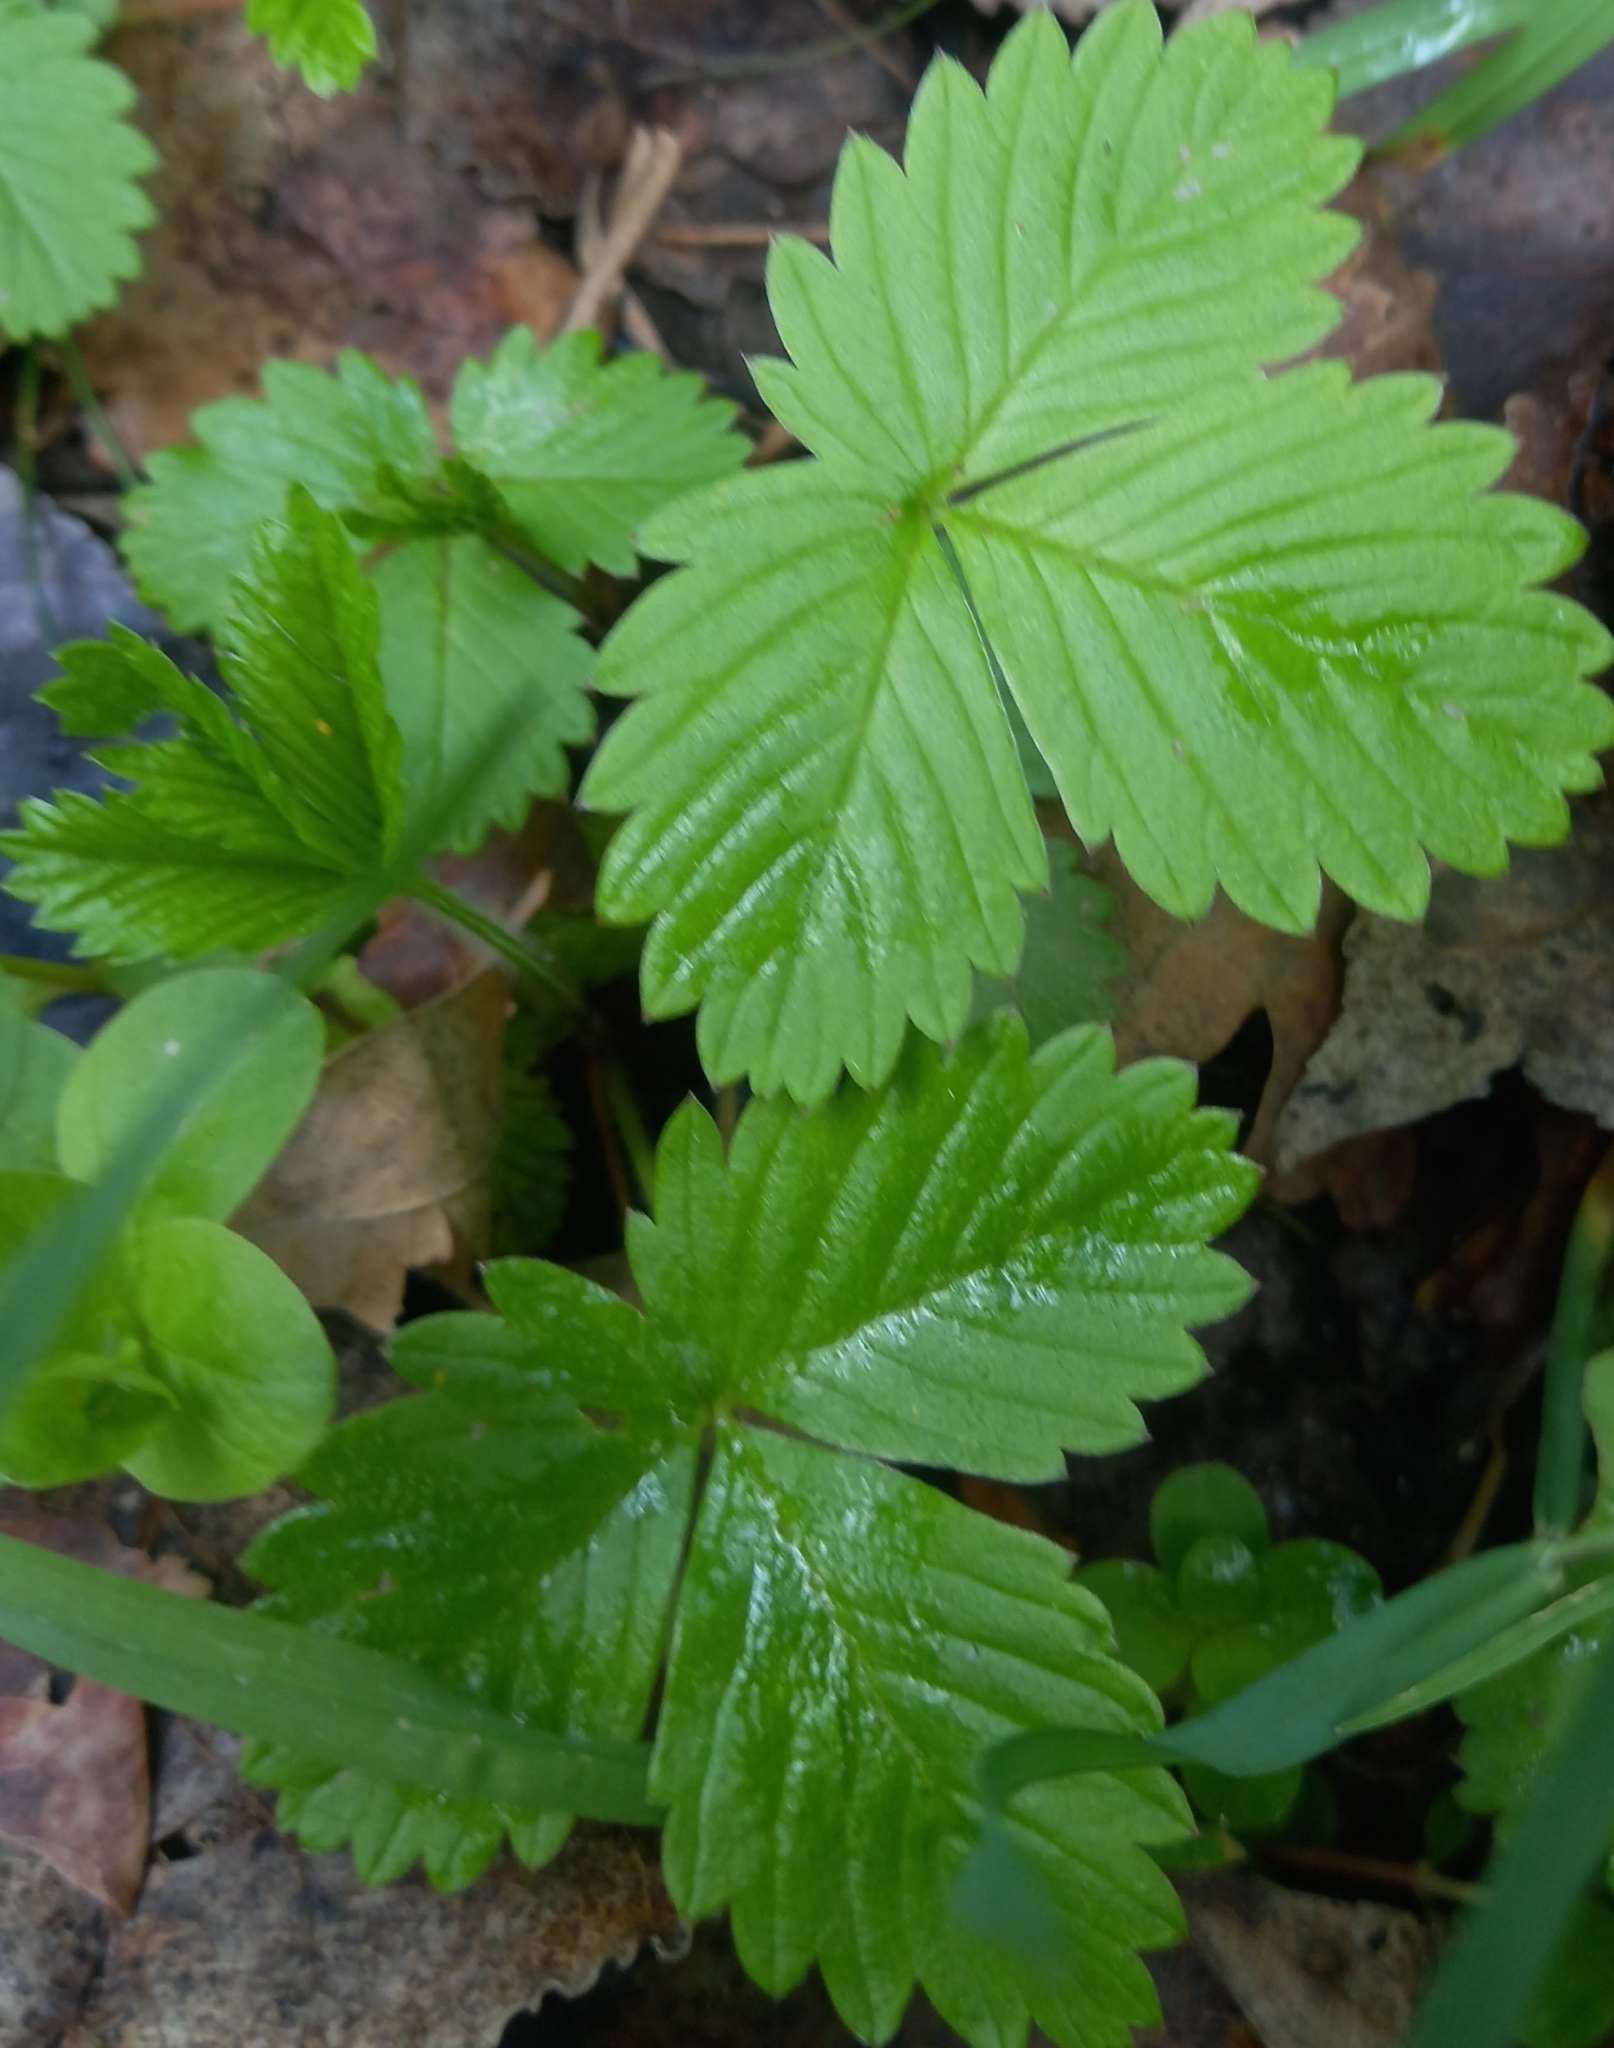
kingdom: Plantae
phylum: Tracheophyta
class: Magnoliopsida
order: Rosales
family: Rosaceae
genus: Fragaria
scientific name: Fragaria vesca
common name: Wild strawberry
